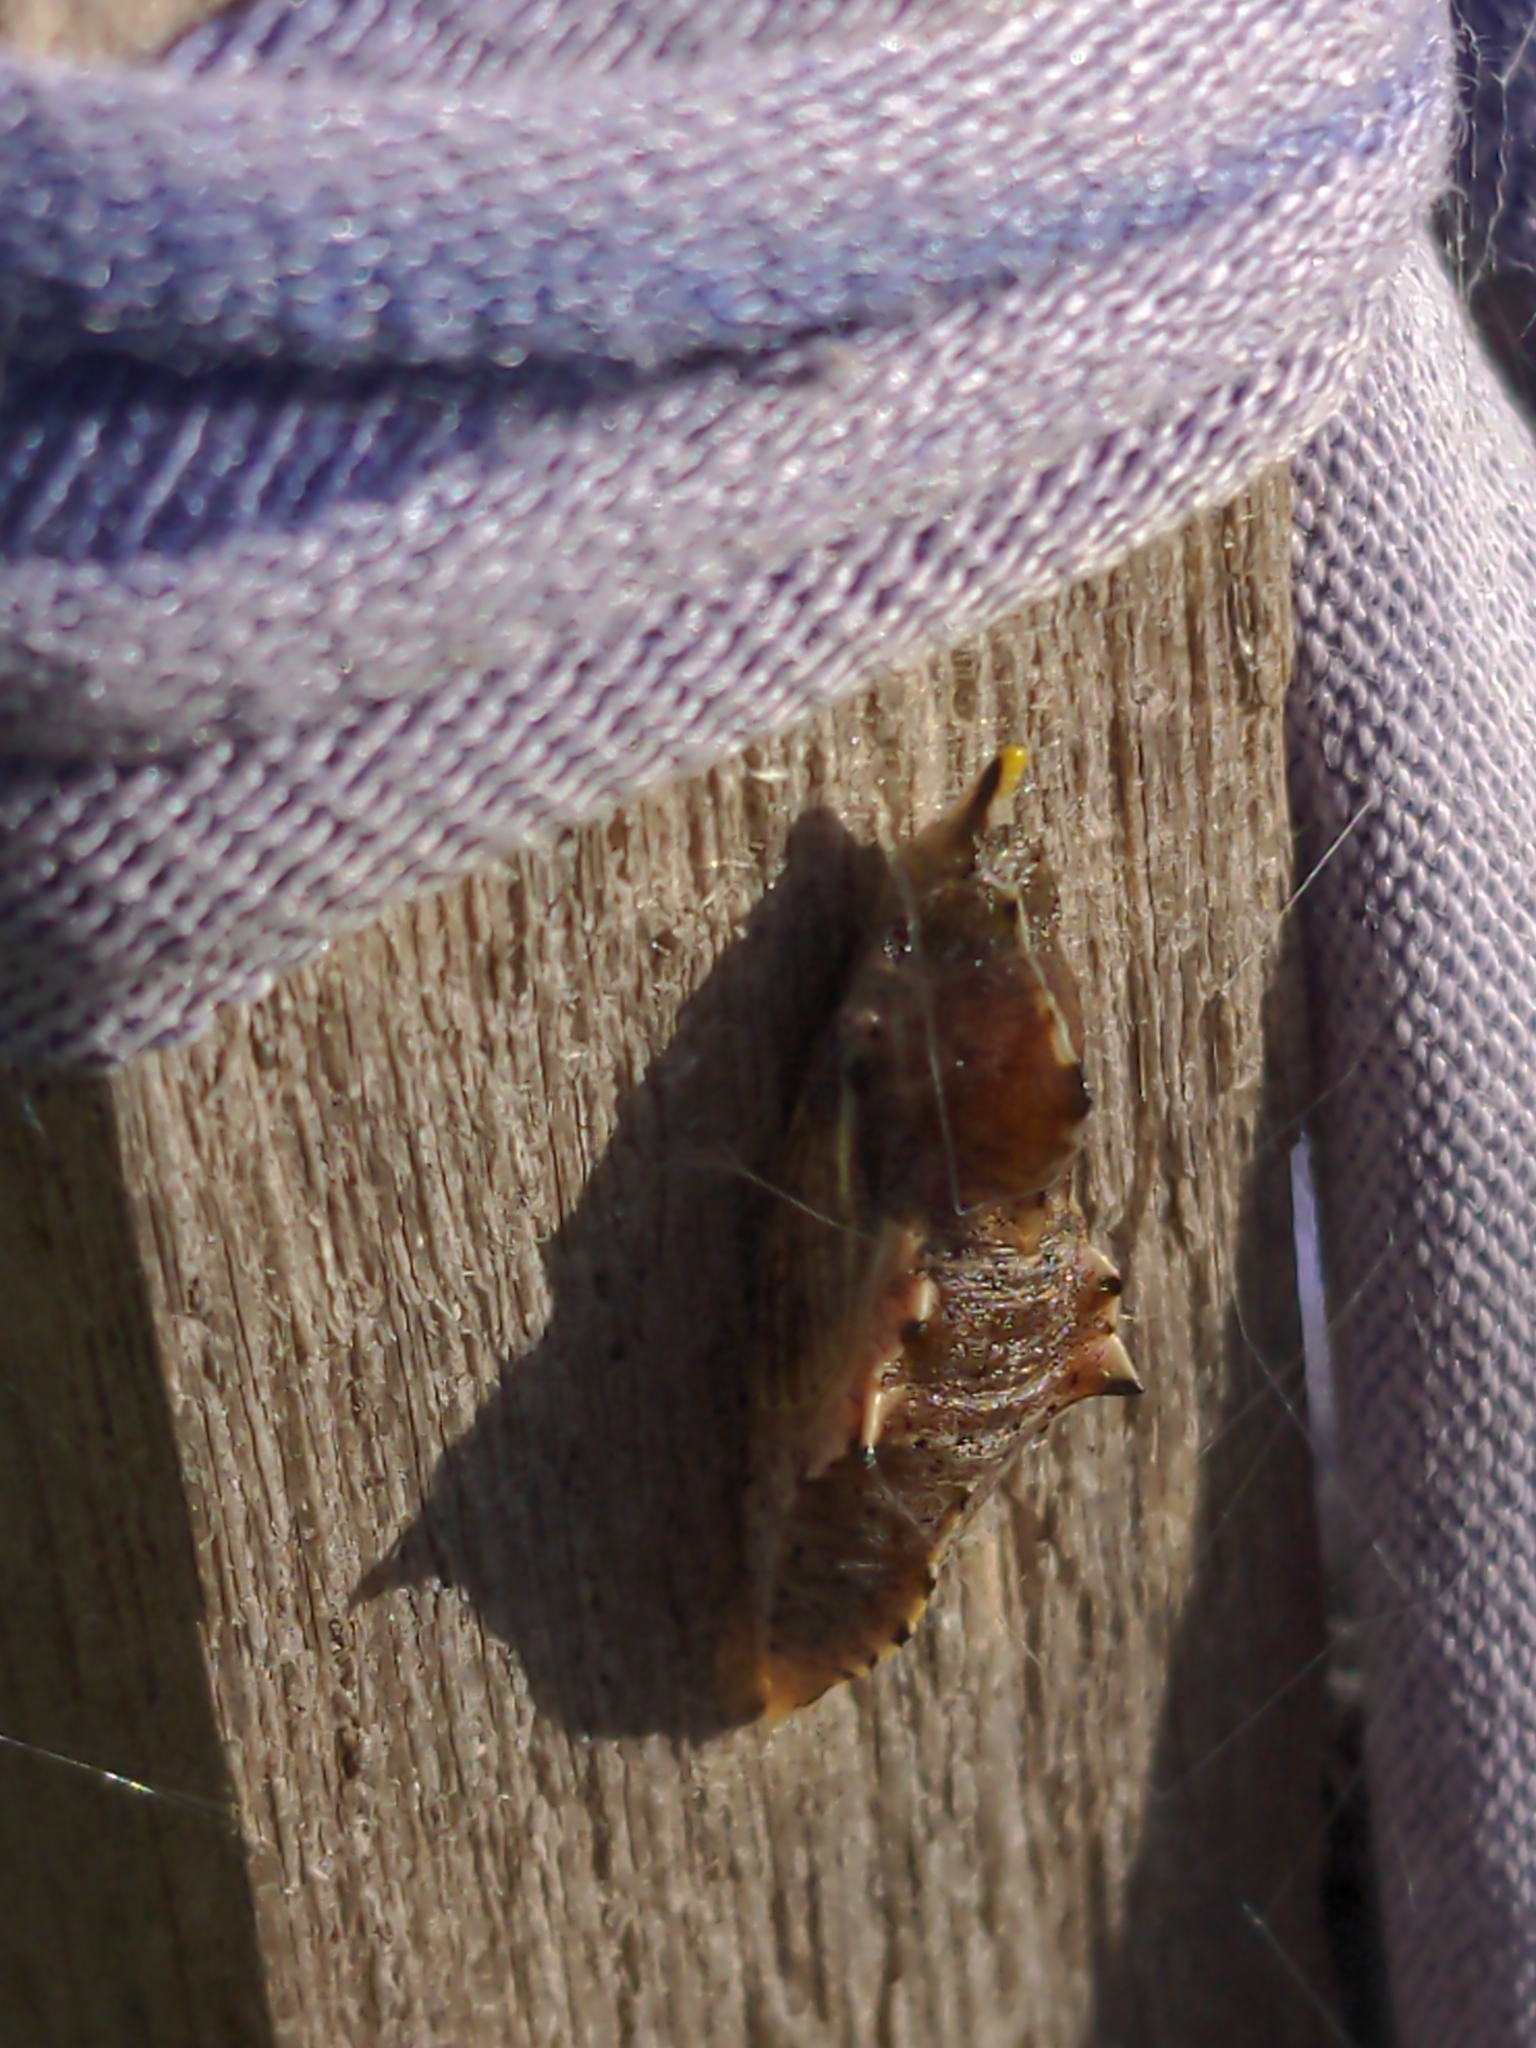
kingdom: Animalia
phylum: Arthropoda
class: Insecta
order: Lepidoptera
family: Pieridae
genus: Pieris
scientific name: Pieris rapae
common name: Small white
